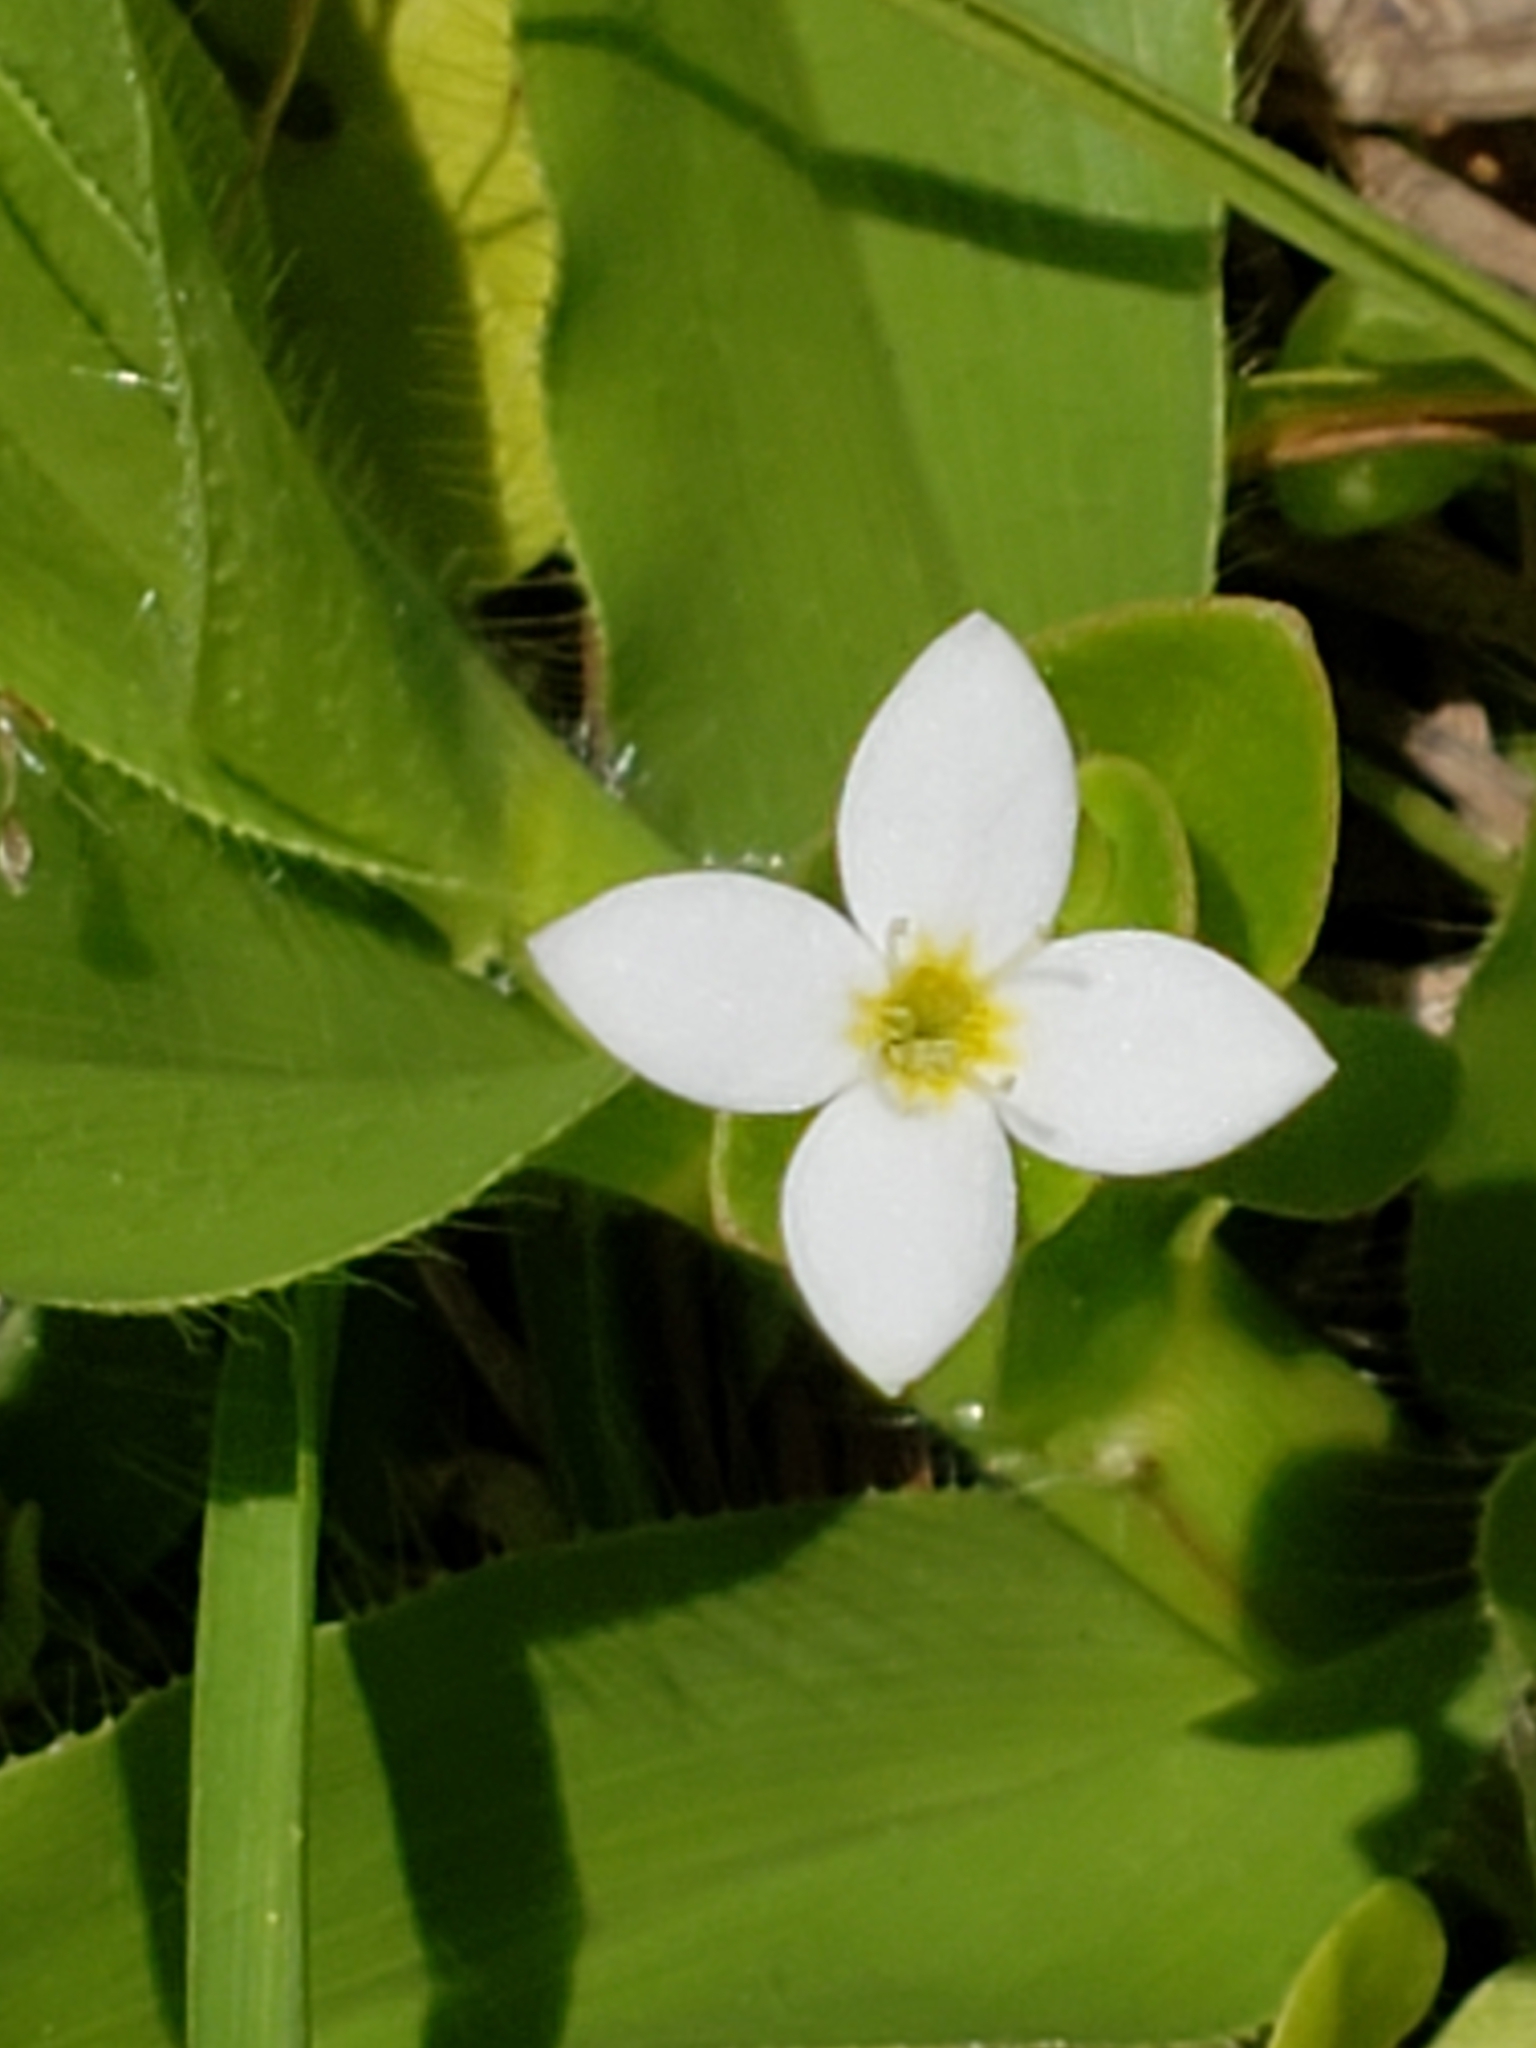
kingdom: Plantae
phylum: Tracheophyta
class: Magnoliopsida
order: Gentianales
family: Rubiaceae
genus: Houstonia
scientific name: Houstonia procumbens
